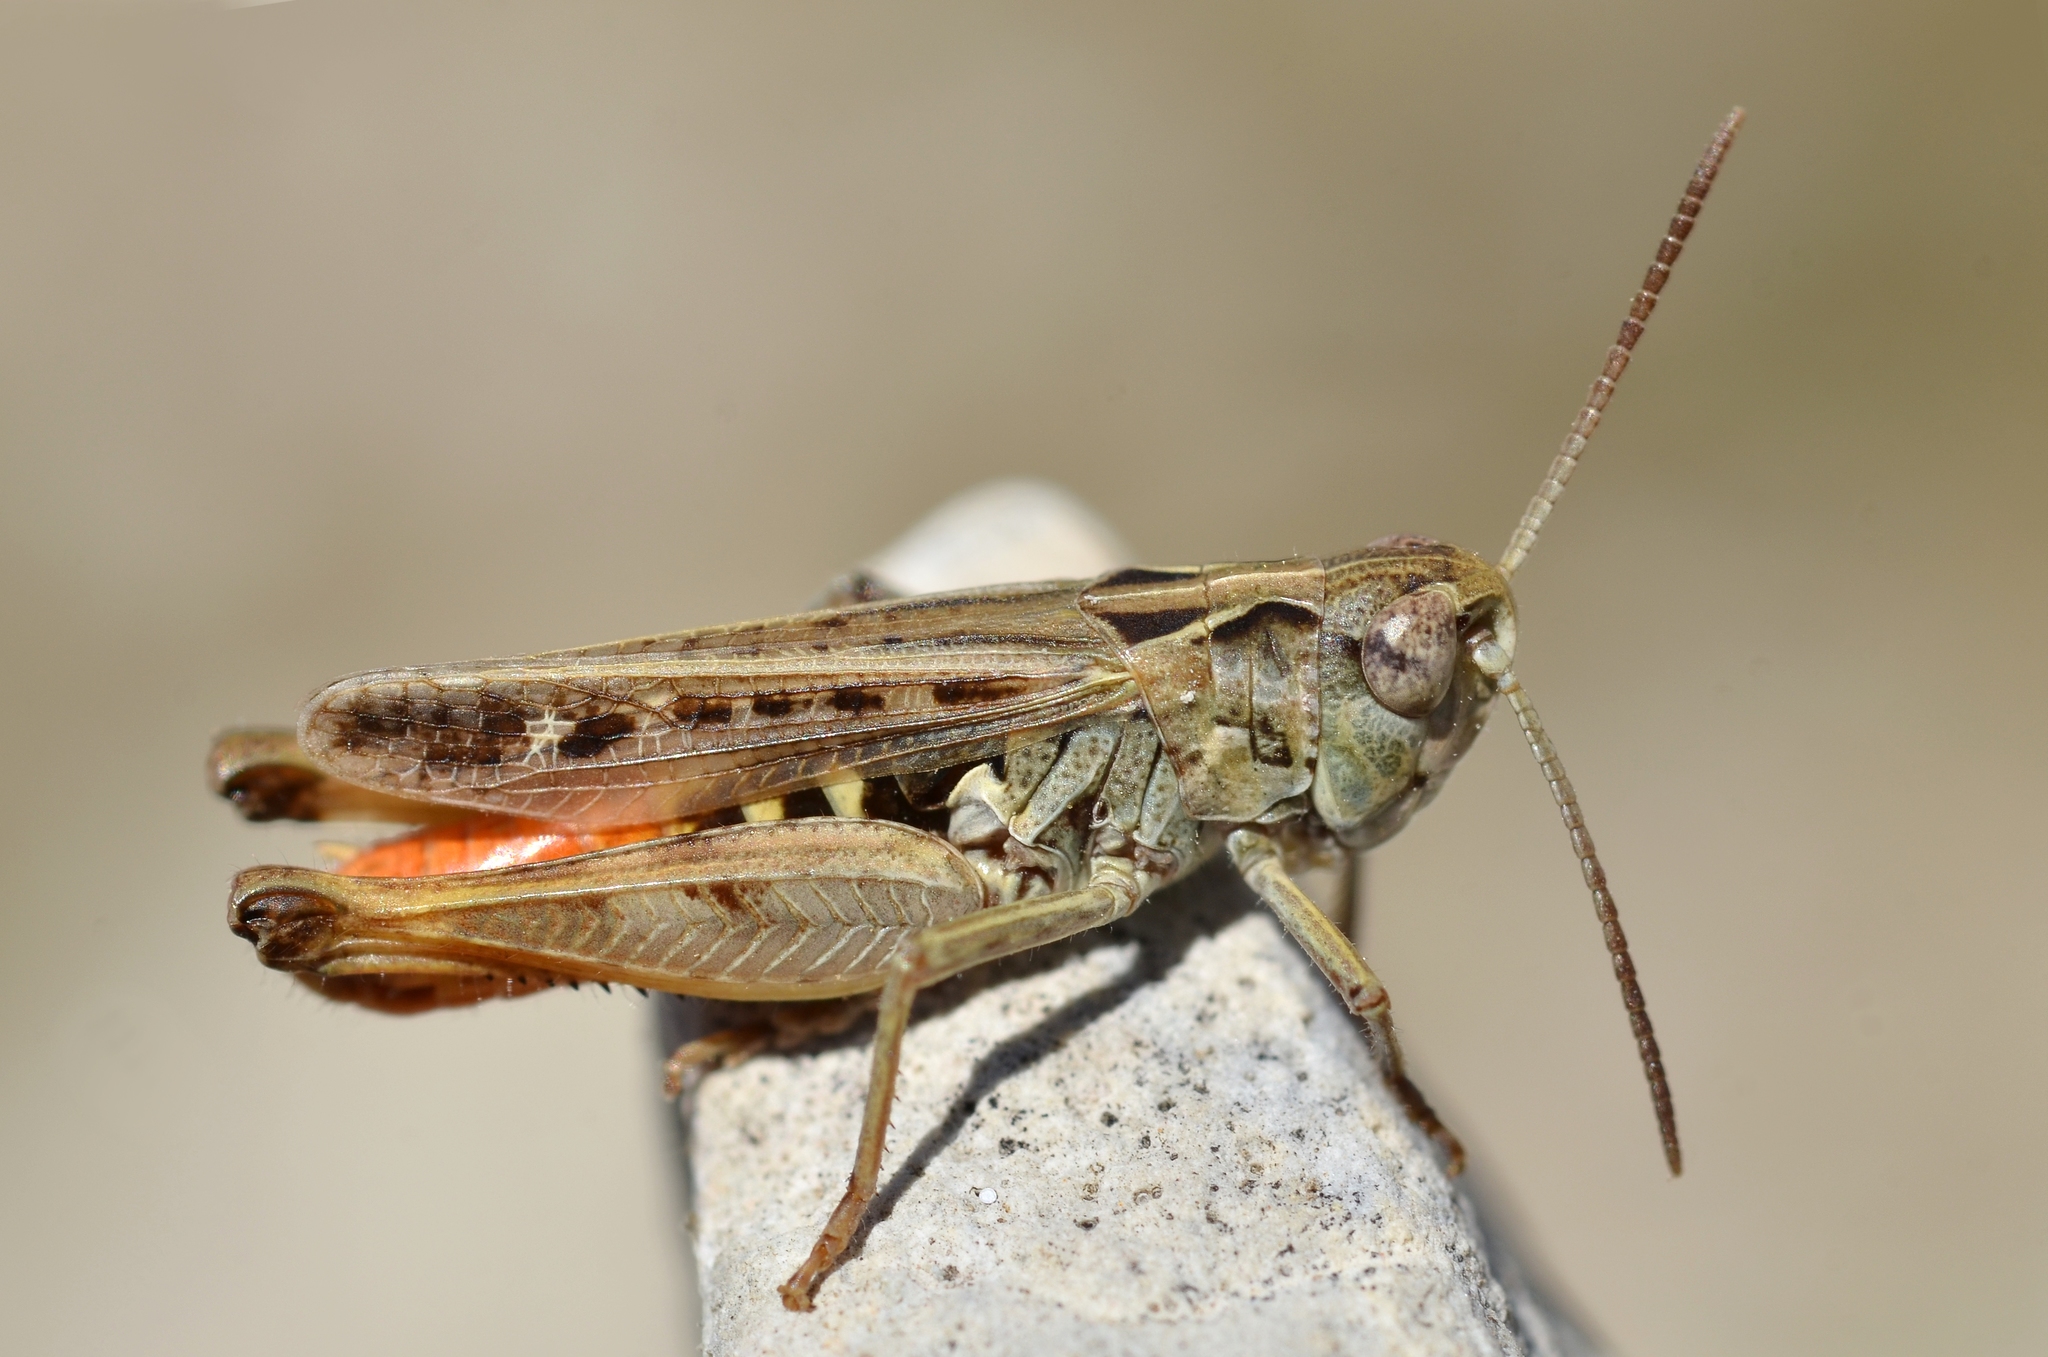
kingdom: Animalia
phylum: Arthropoda
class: Insecta
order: Orthoptera
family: Acrididae
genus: Omocestus
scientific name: Omocestus haemorrhoidalis
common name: Orange-tipped grasshopper
